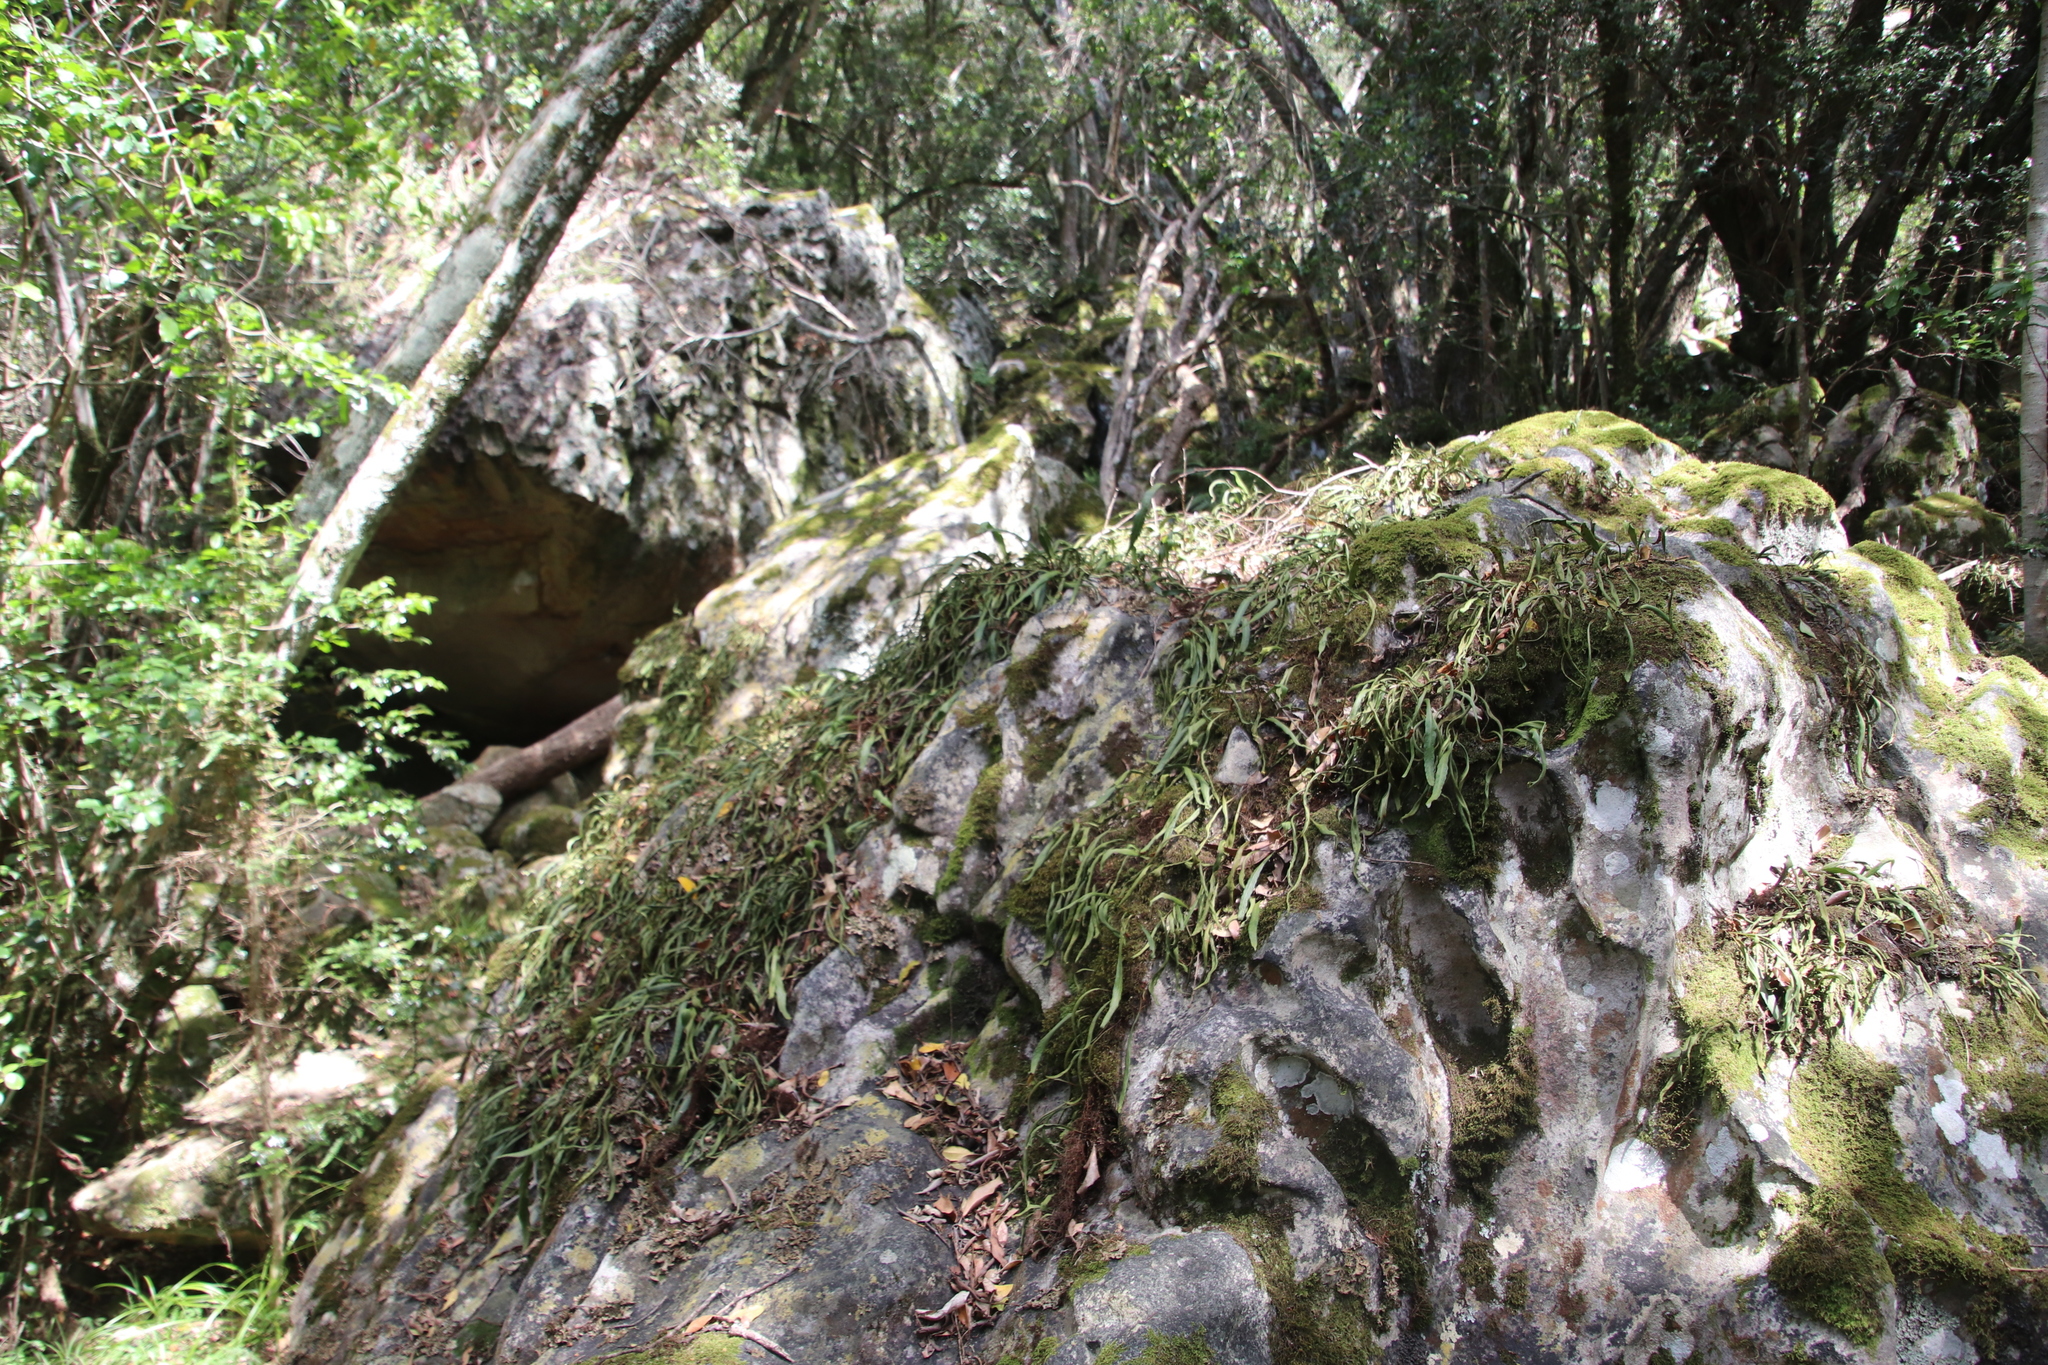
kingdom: Plantae
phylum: Tracheophyta
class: Polypodiopsida
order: Polypodiales
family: Polypodiaceae
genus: Pleopeltis
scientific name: Pleopeltis macrocarpa
